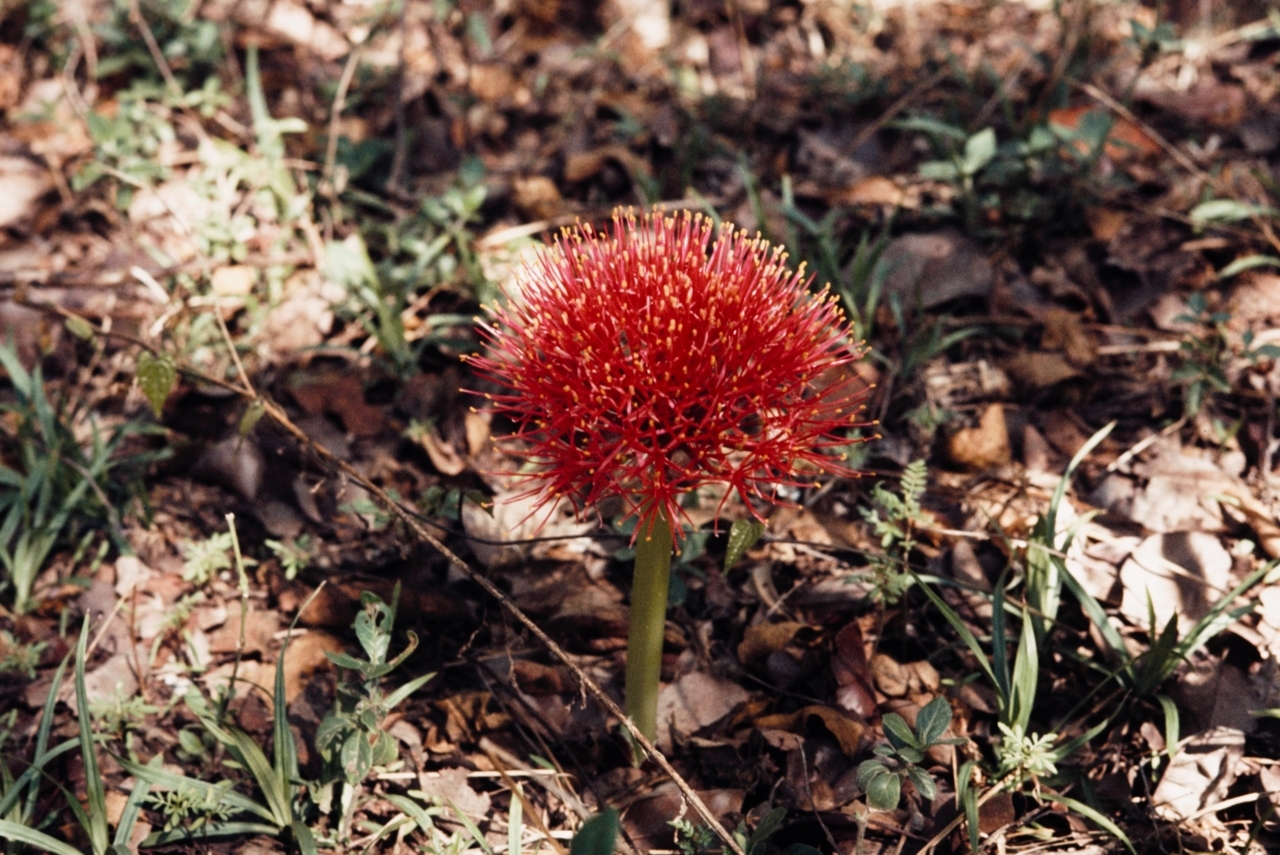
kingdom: Plantae
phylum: Tracheophyta
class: Liliopsida
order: Asparagales
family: Amaryllidaceae
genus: Scadoxus
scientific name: Scadoxus multiflorus
